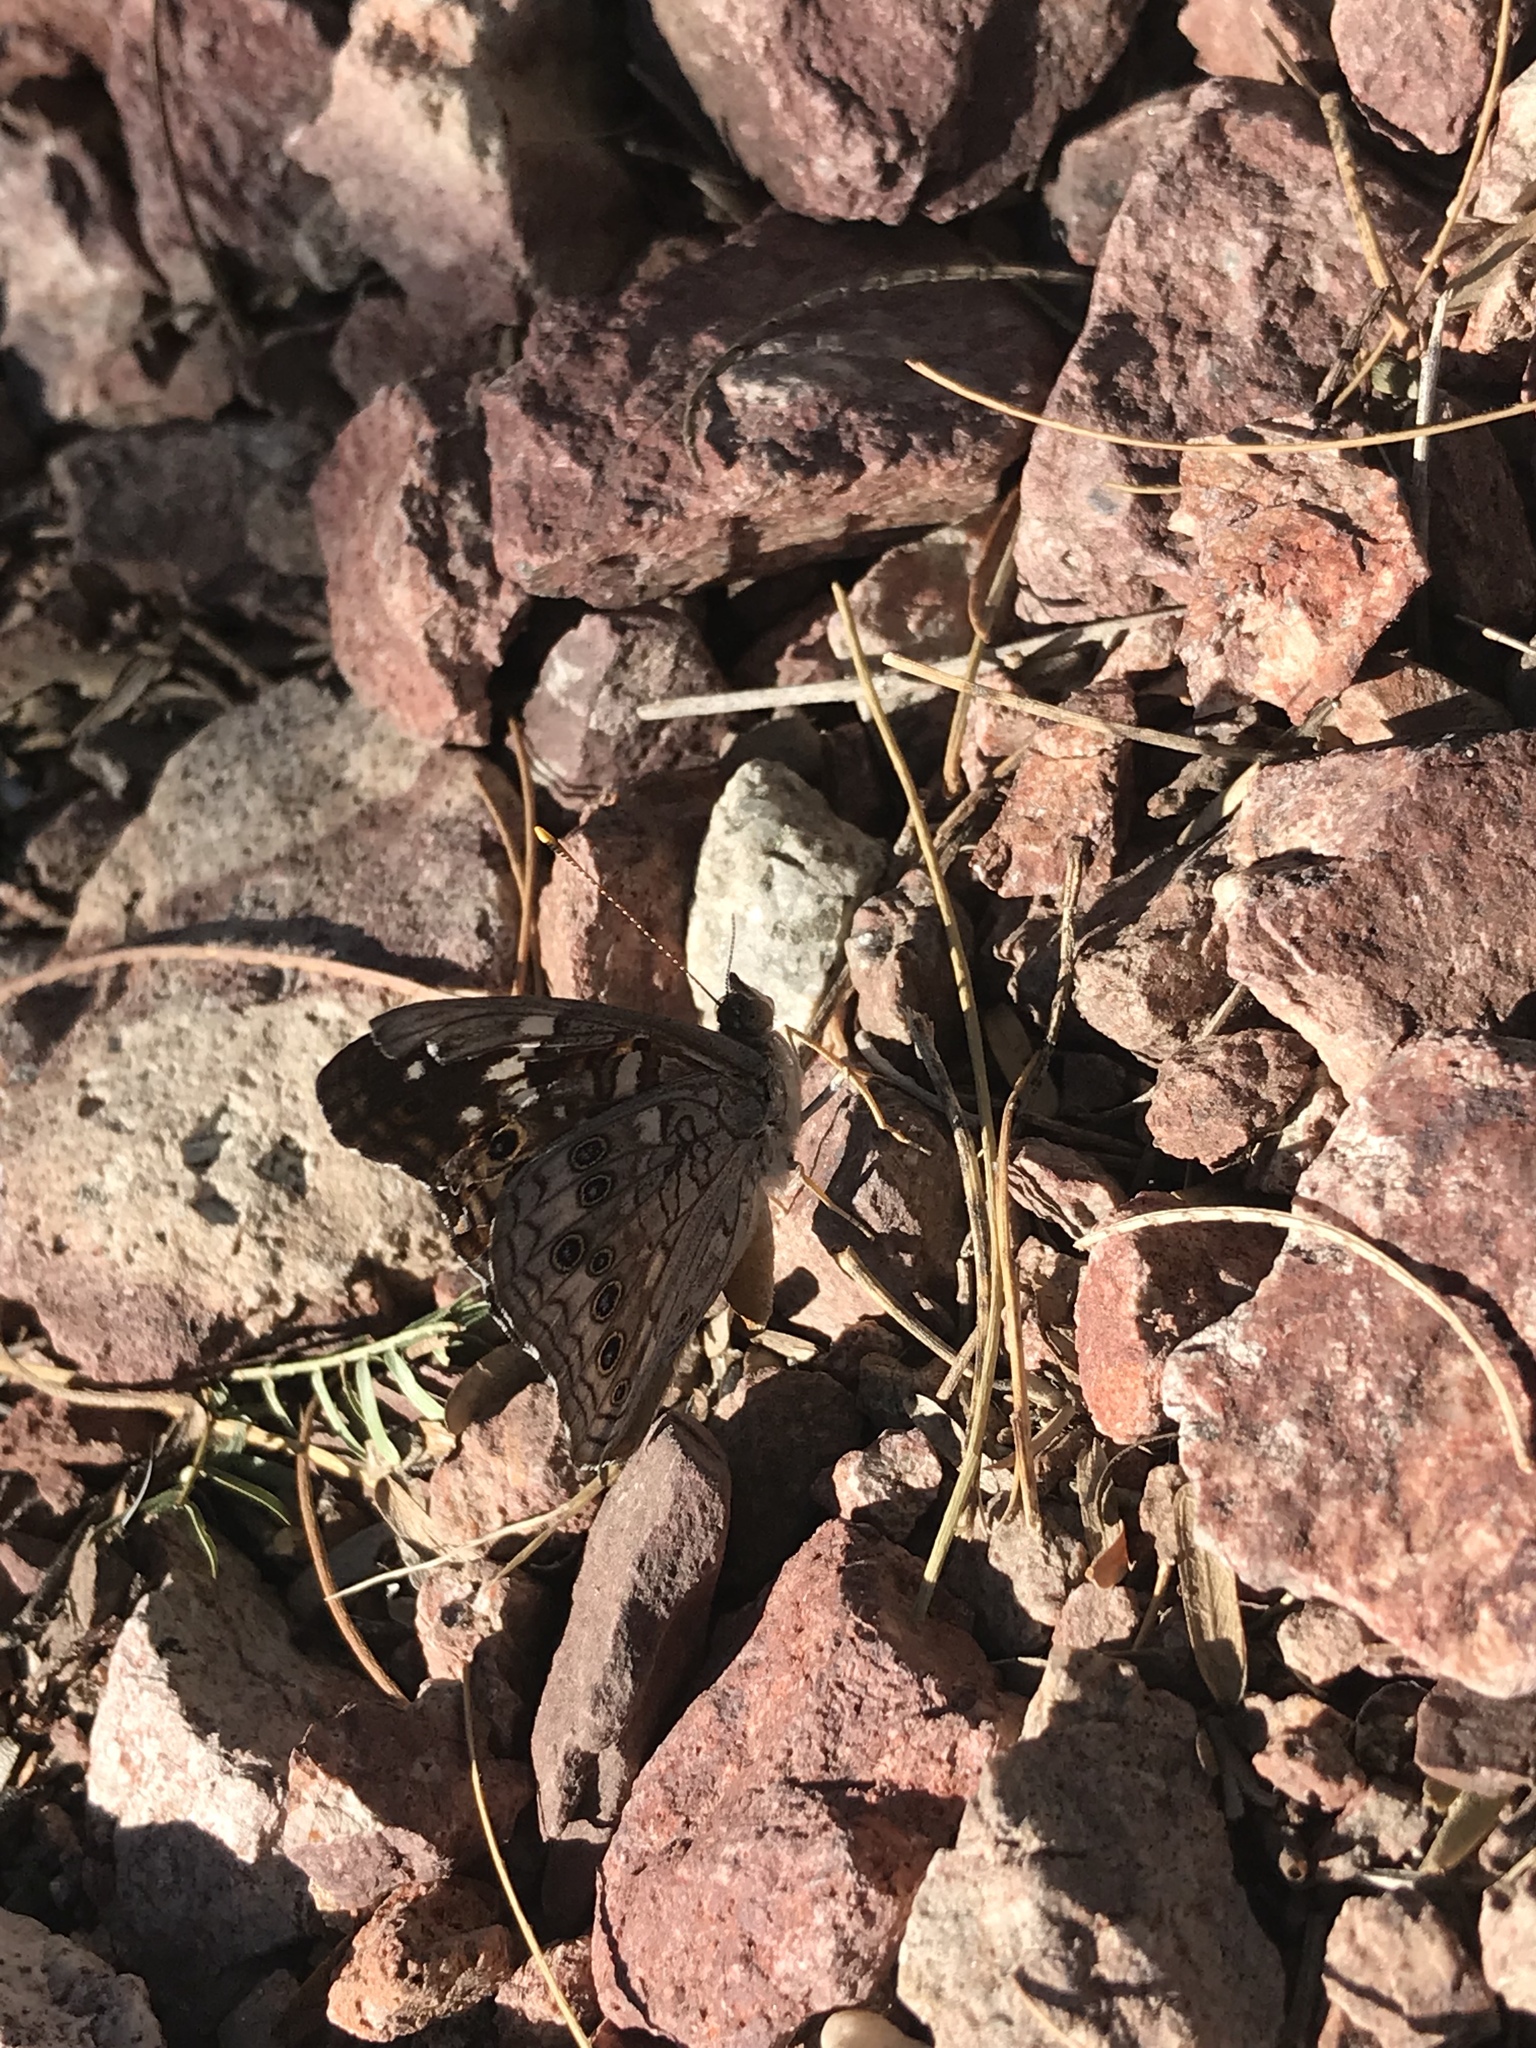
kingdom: Animalia
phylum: Arthropoda
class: Insecta
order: Lepidoptera
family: Nymphalidae
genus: Asterocampa
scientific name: Asterocampa leilia
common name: Empress leilia
